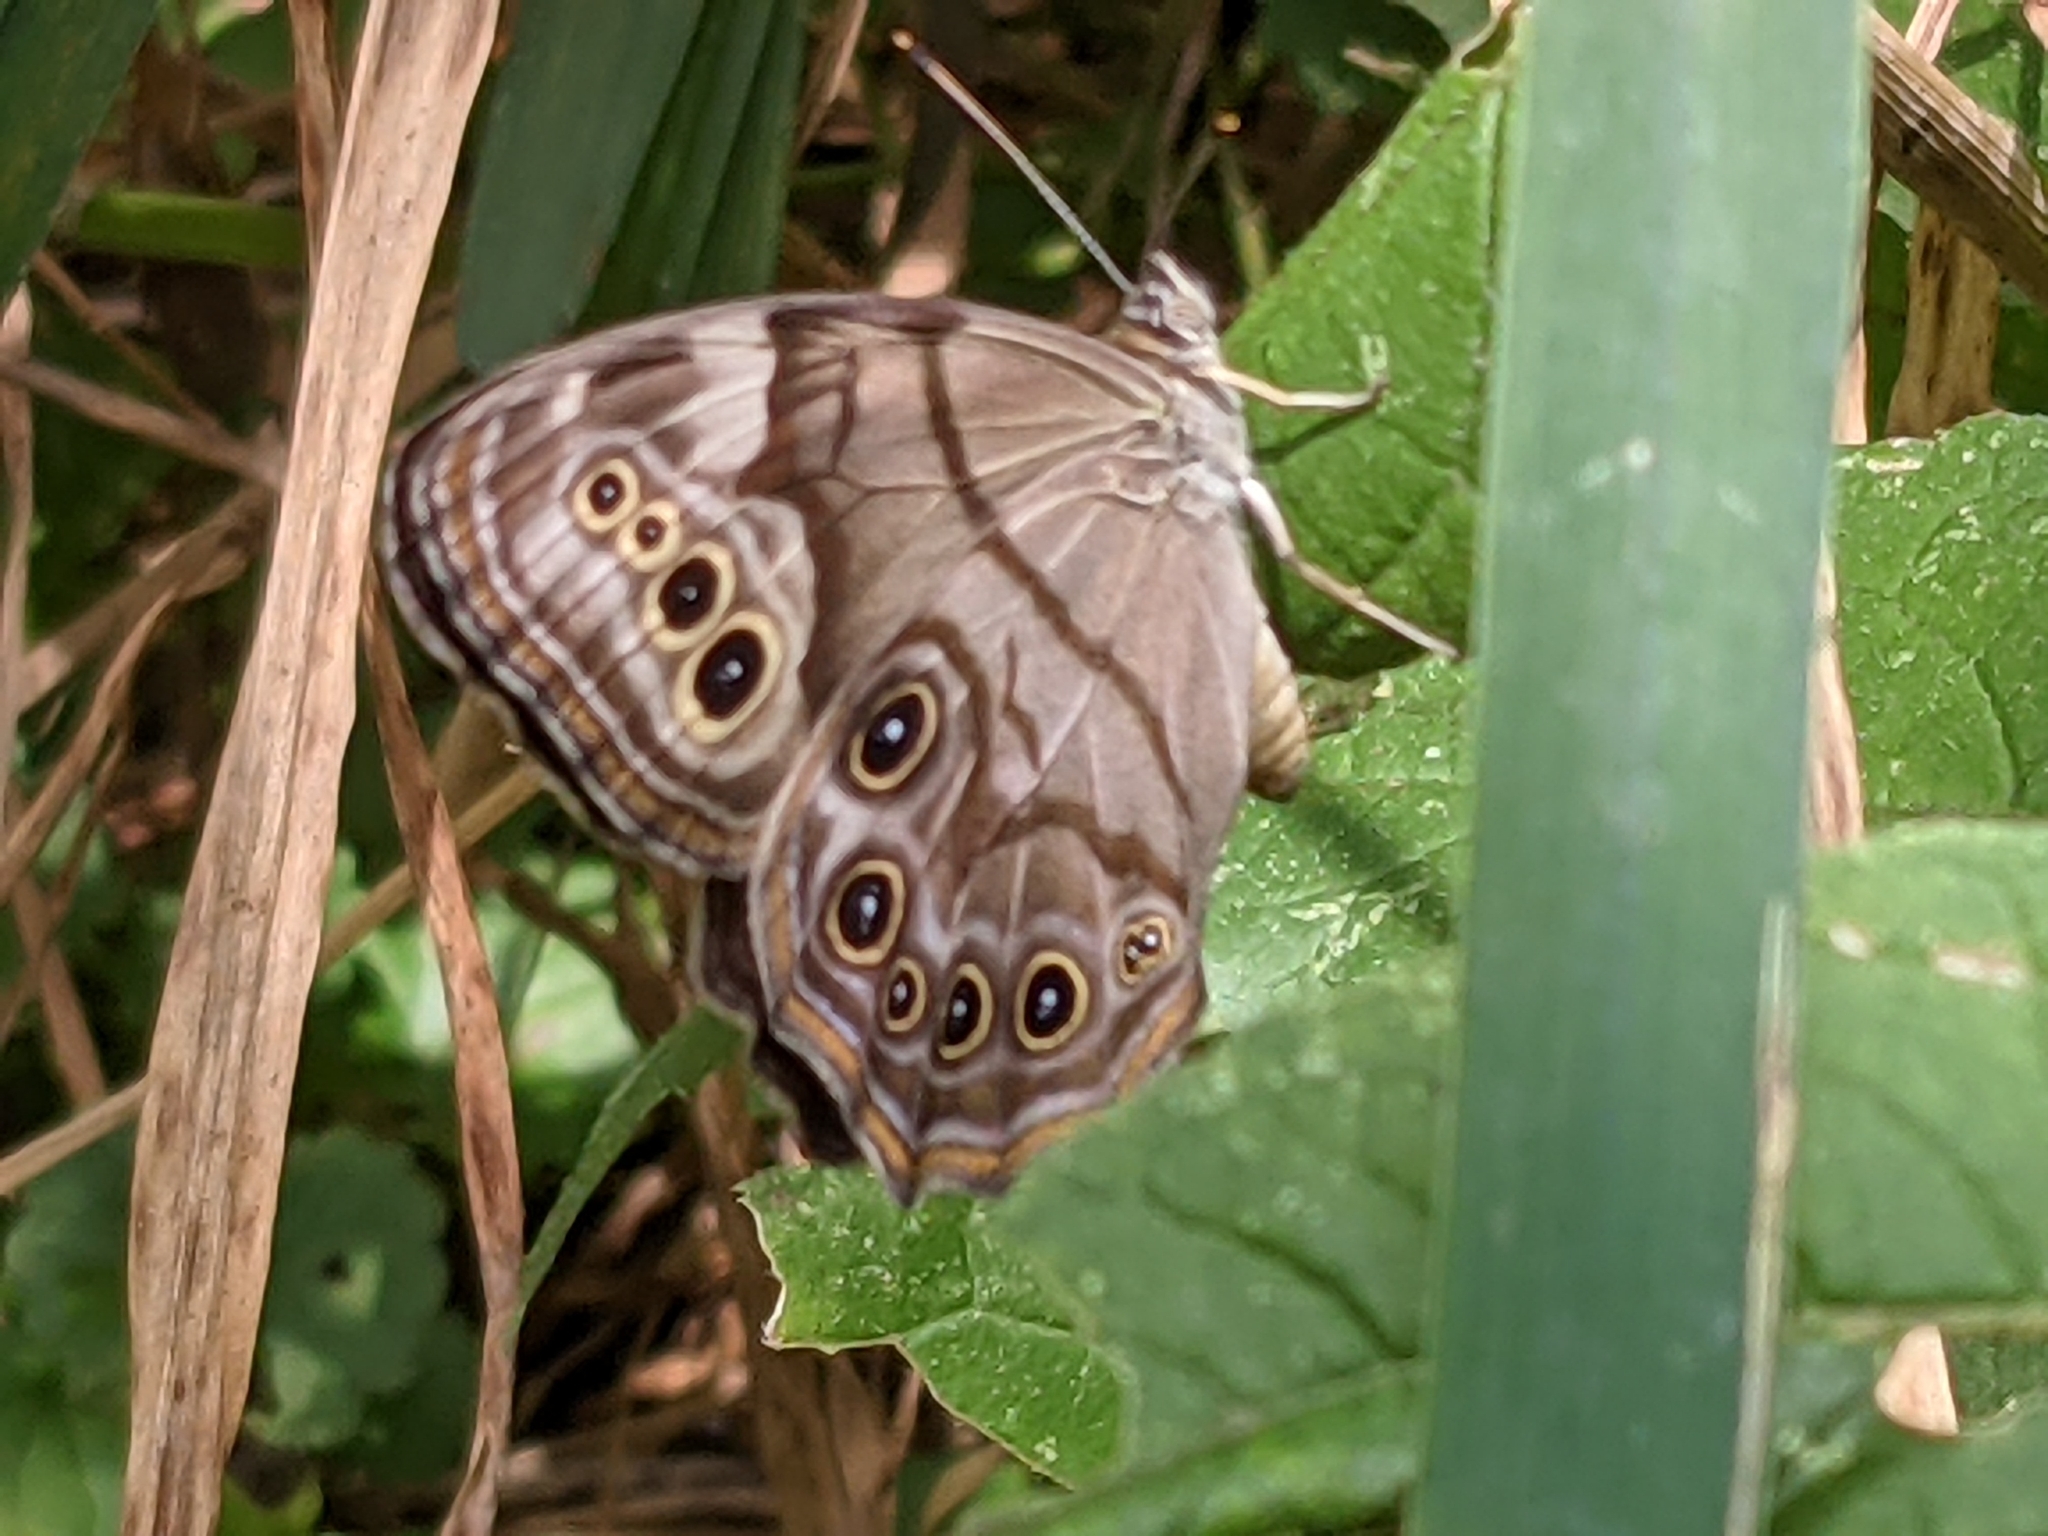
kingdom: Animalia
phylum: Arthropoda
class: Insecta
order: Lepidoptera
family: Nymphalidae
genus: Lethe
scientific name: Lethe anthedon
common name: Northern pearly-eye
